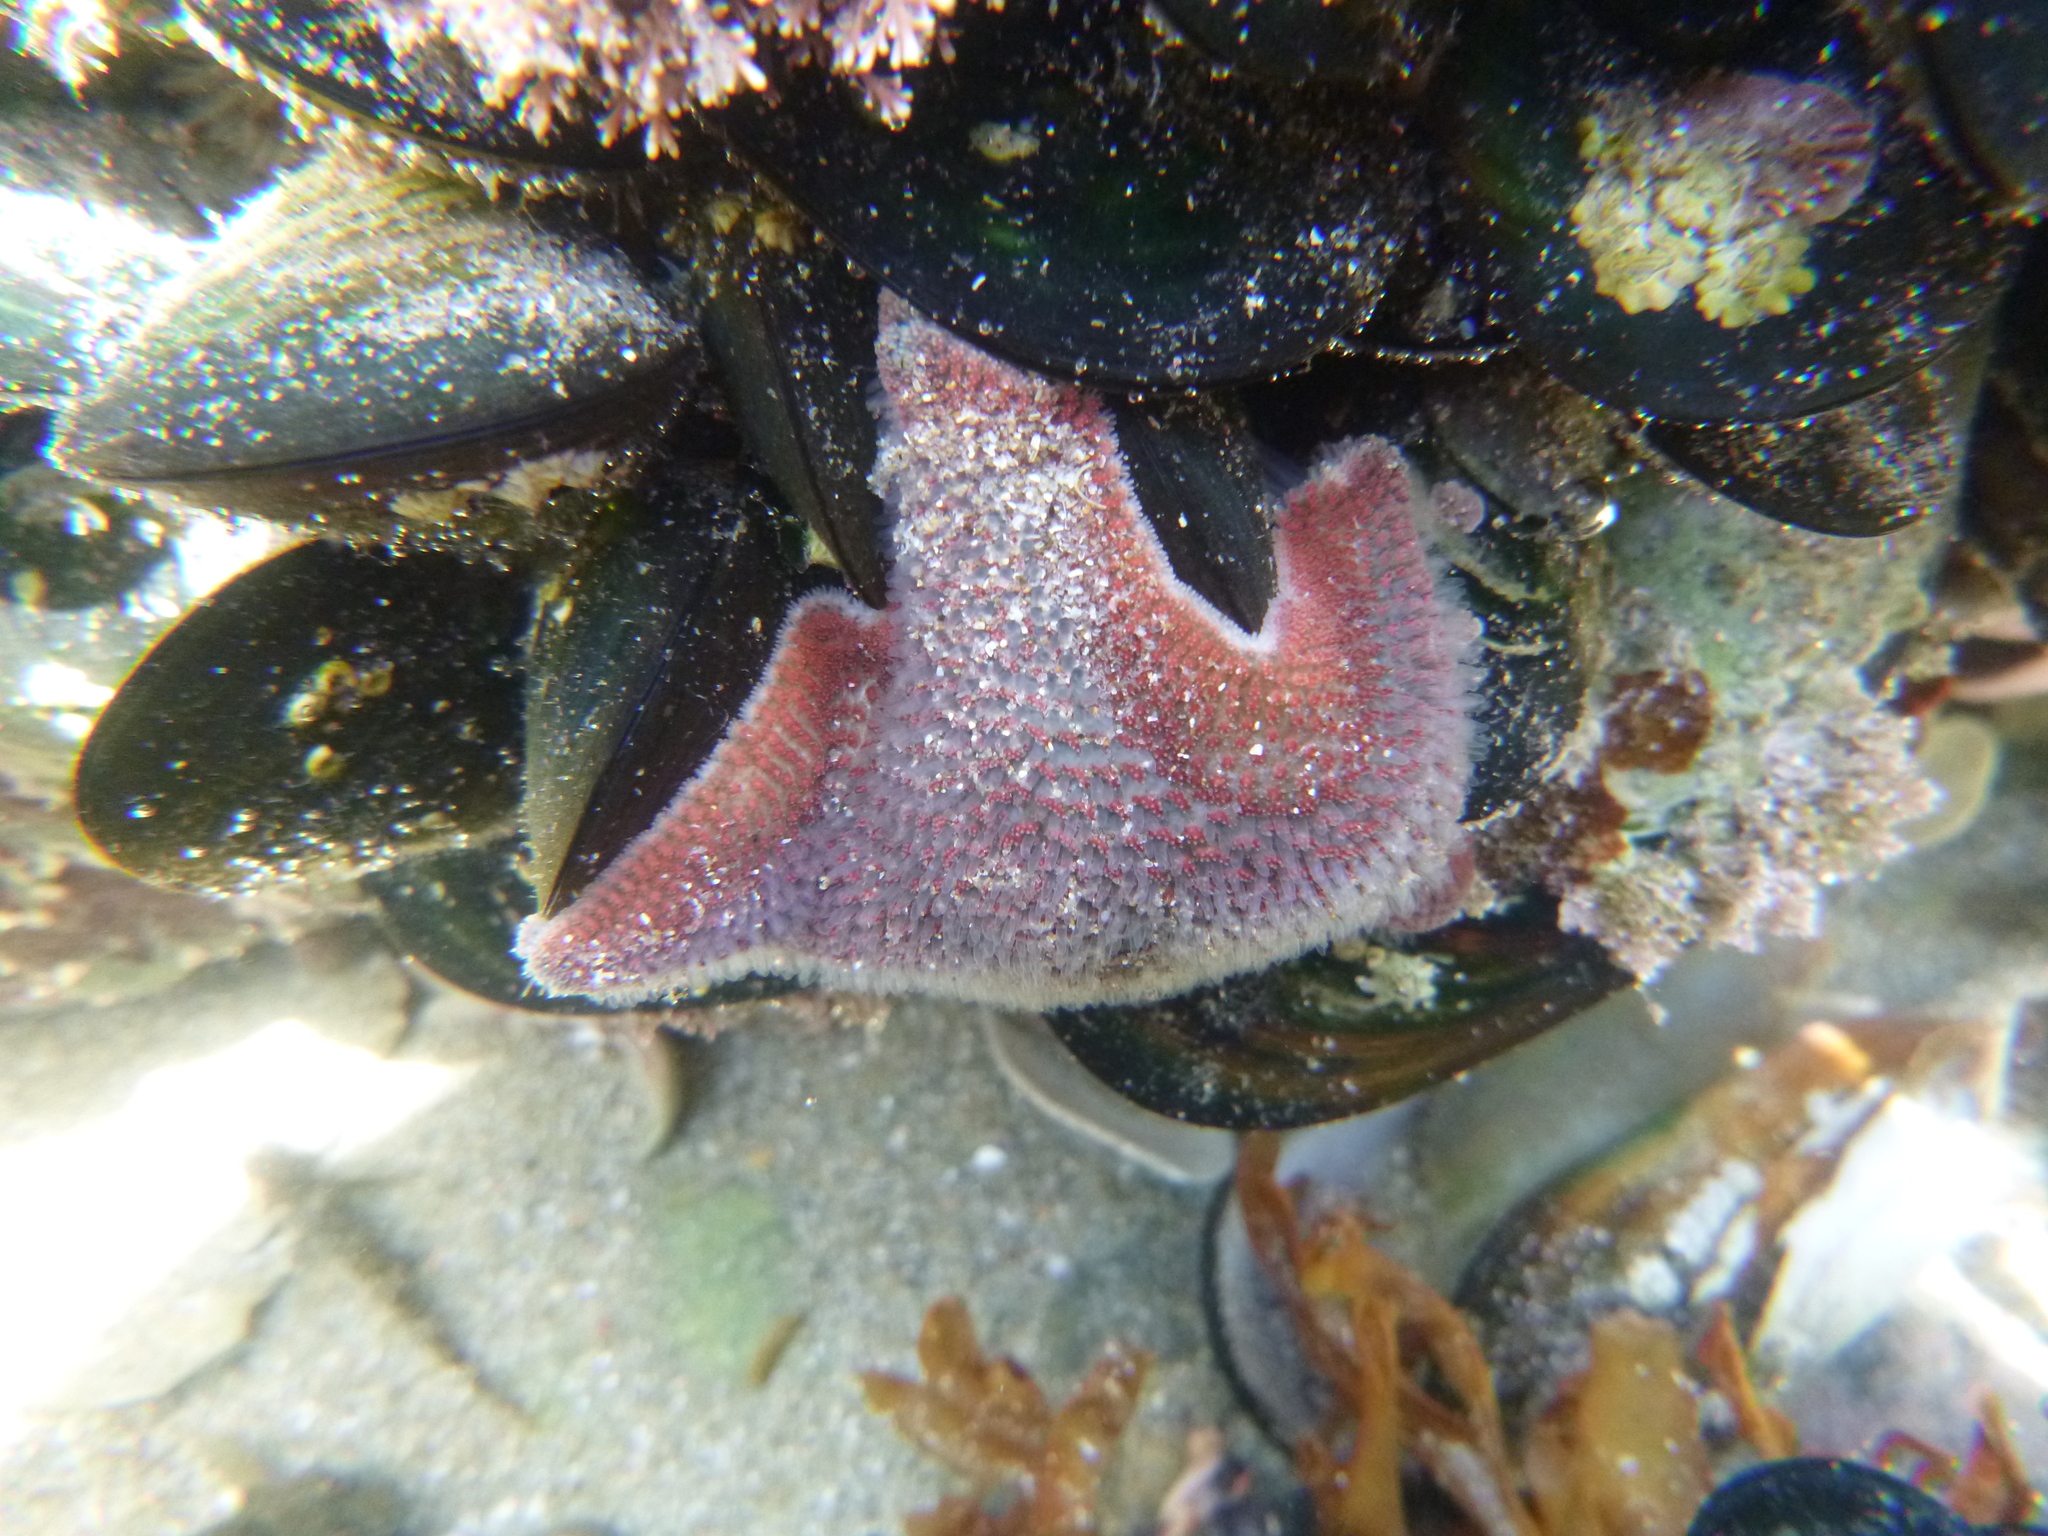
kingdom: Animalia
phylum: Echinodermata
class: Asteroidea
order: Valvatida
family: Asterinidae
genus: Patiriella
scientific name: Patiriella regularis
